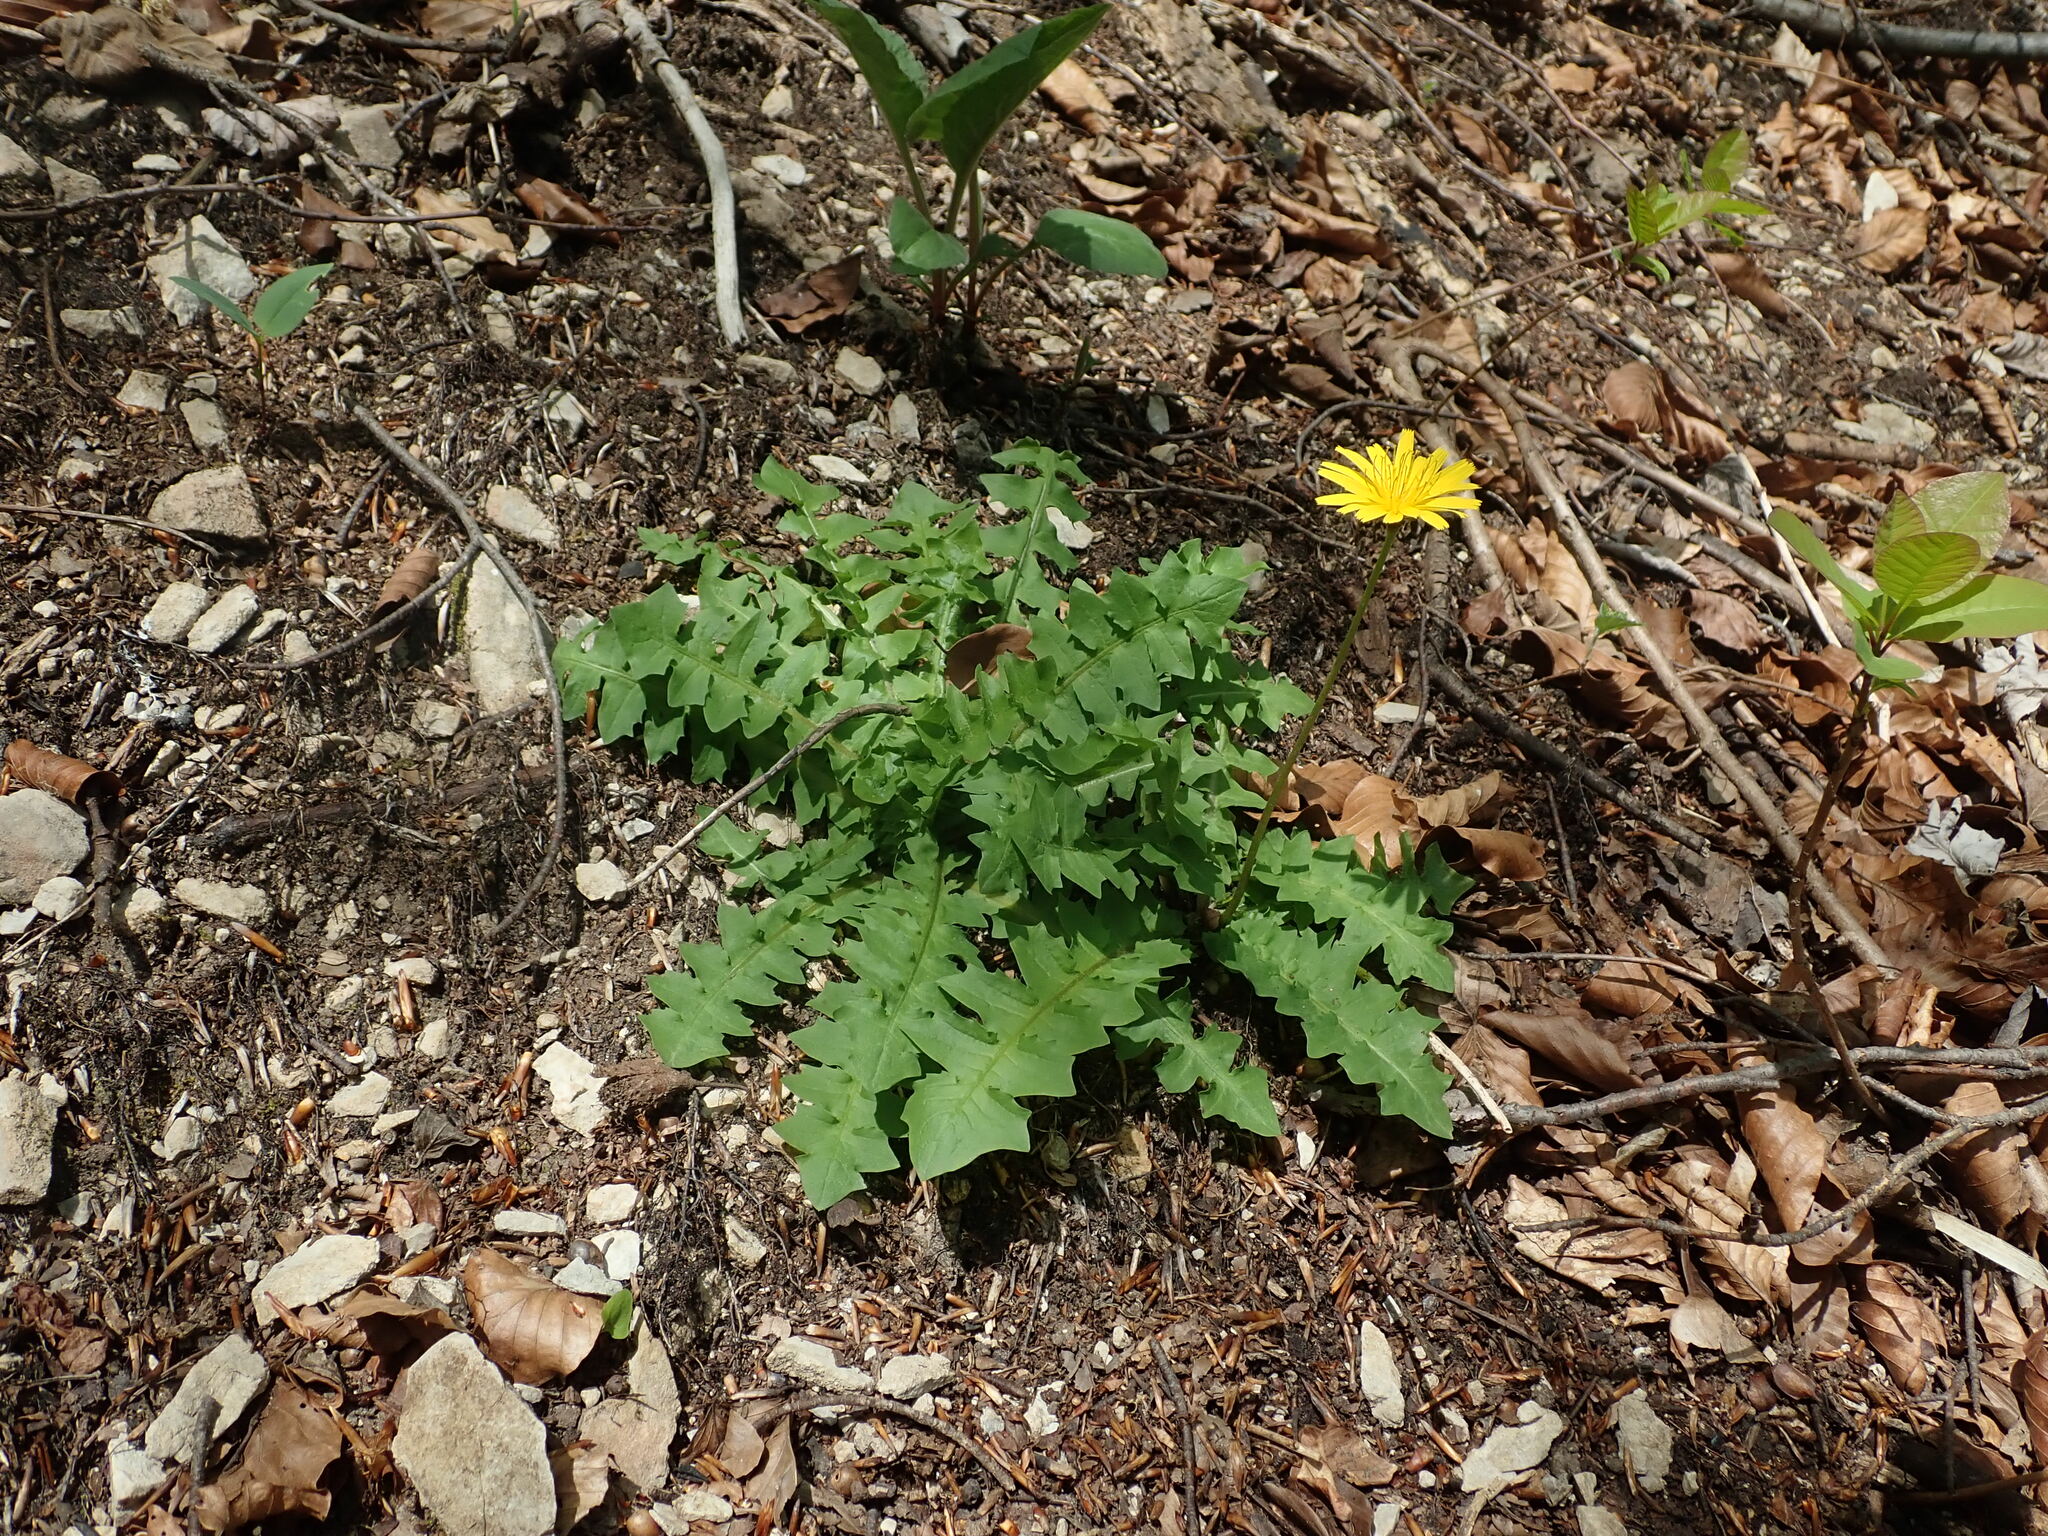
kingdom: Plantae
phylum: Tracheophyta
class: Magnoliopsida
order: Asterales
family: Asteraceae
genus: Aposeris
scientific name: Aposeris foetida
